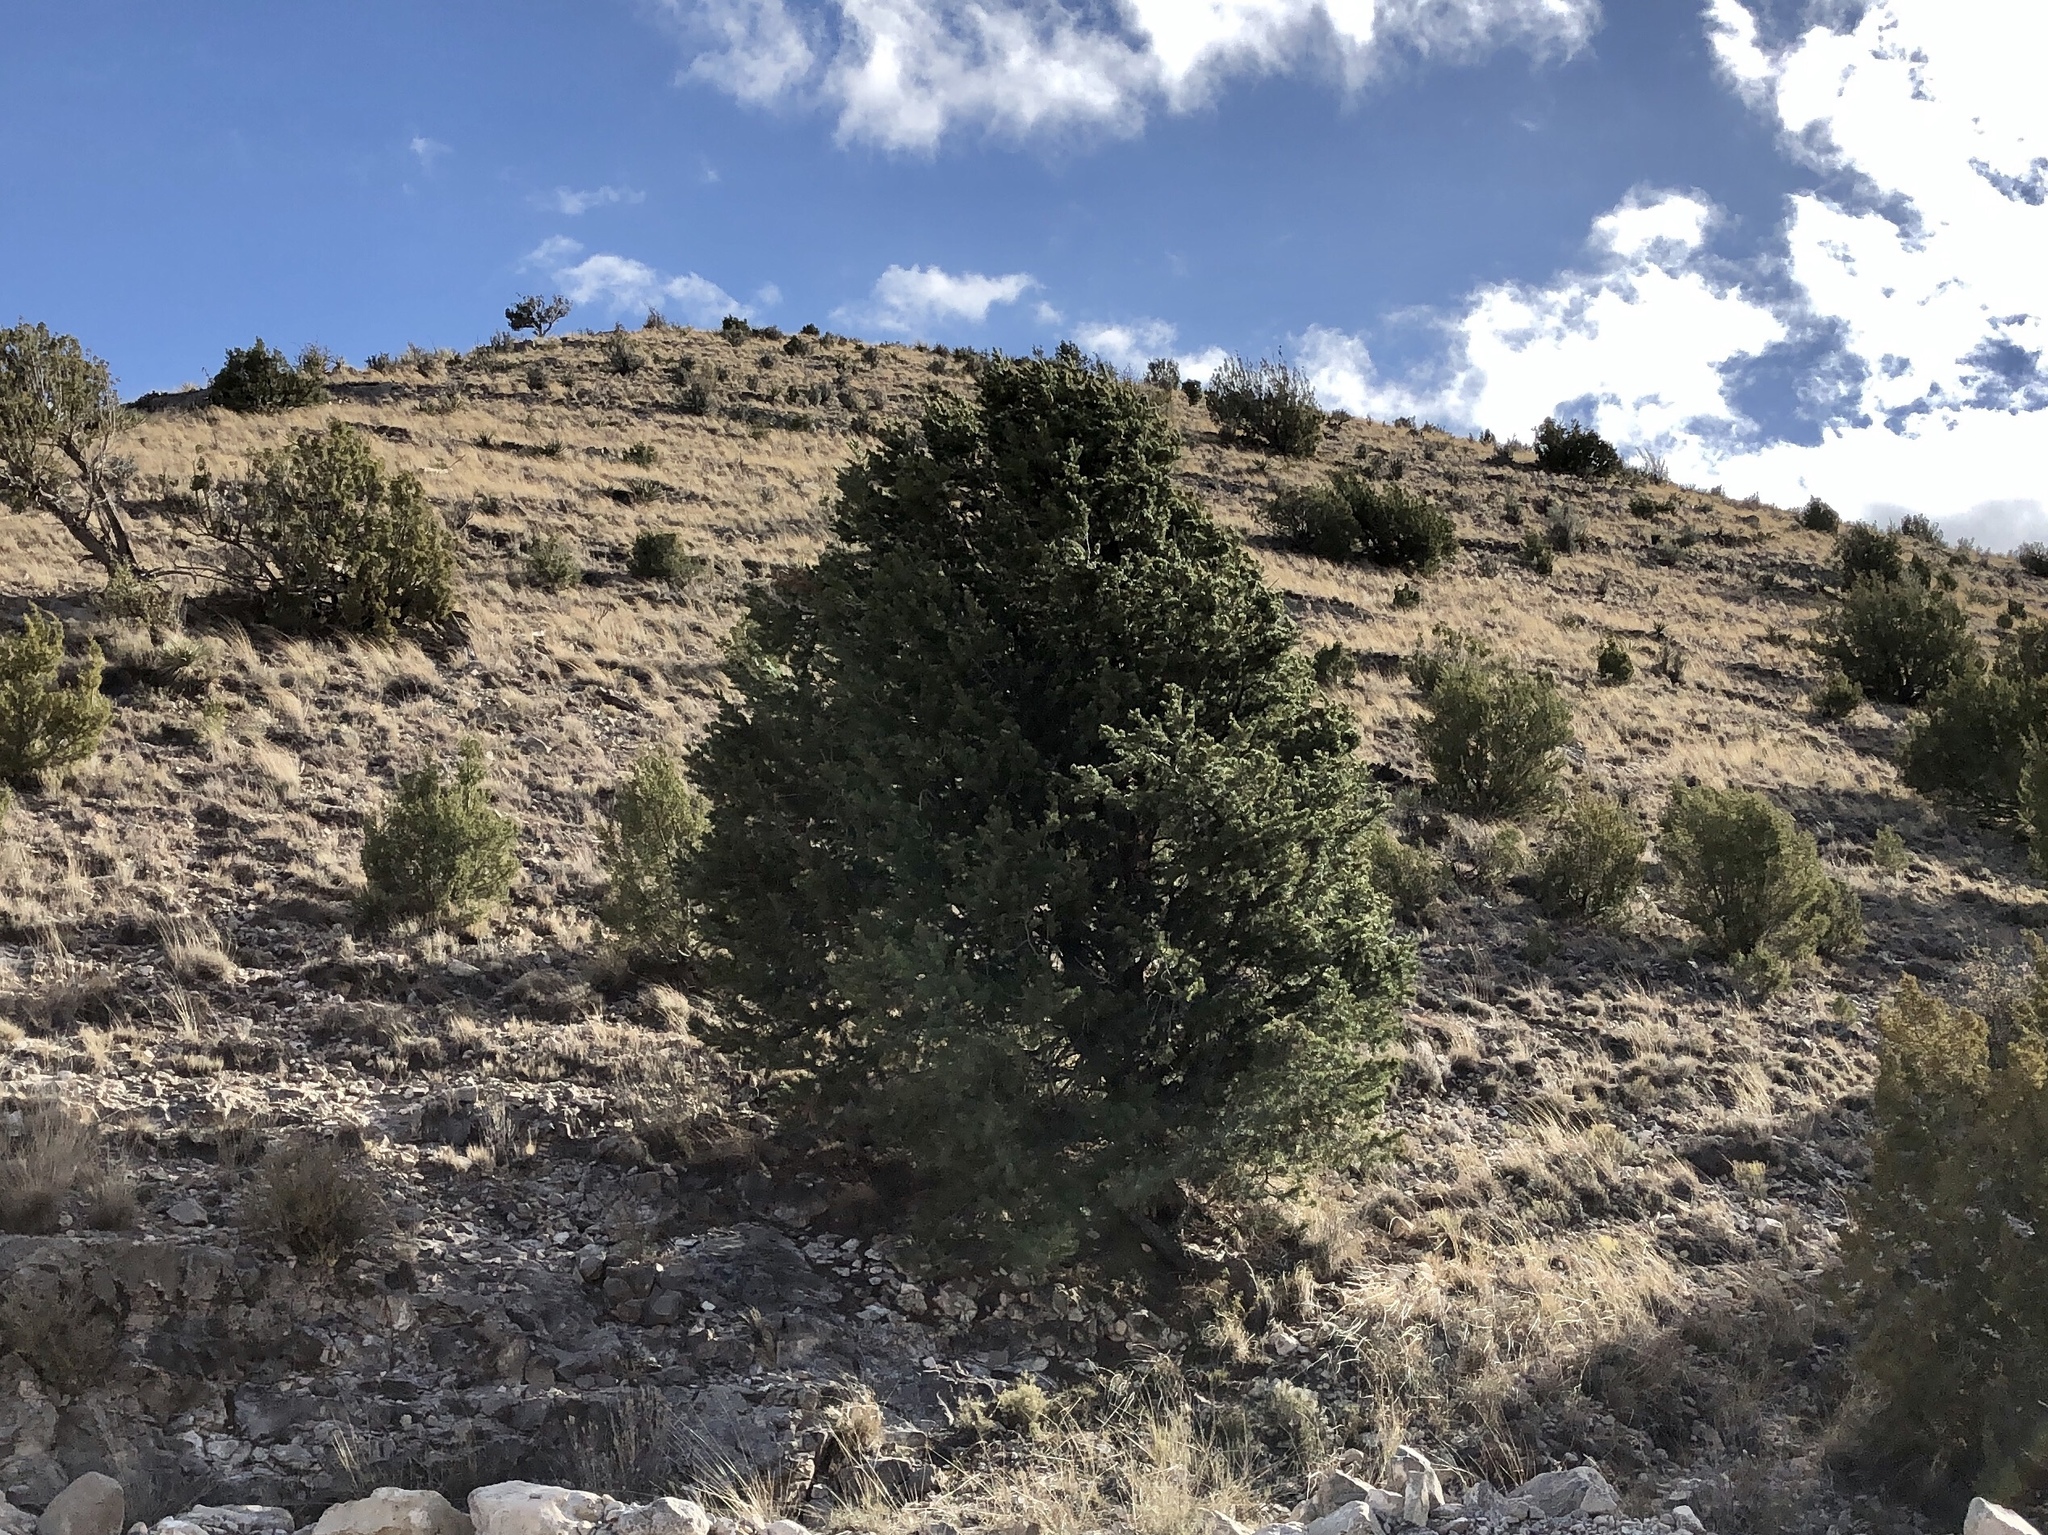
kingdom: Plantae
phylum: Tracheophyta
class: Pinopsida
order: Pinales
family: Pinaceae
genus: Pinus
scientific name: Pinus edulis
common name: Colorado pinyon
